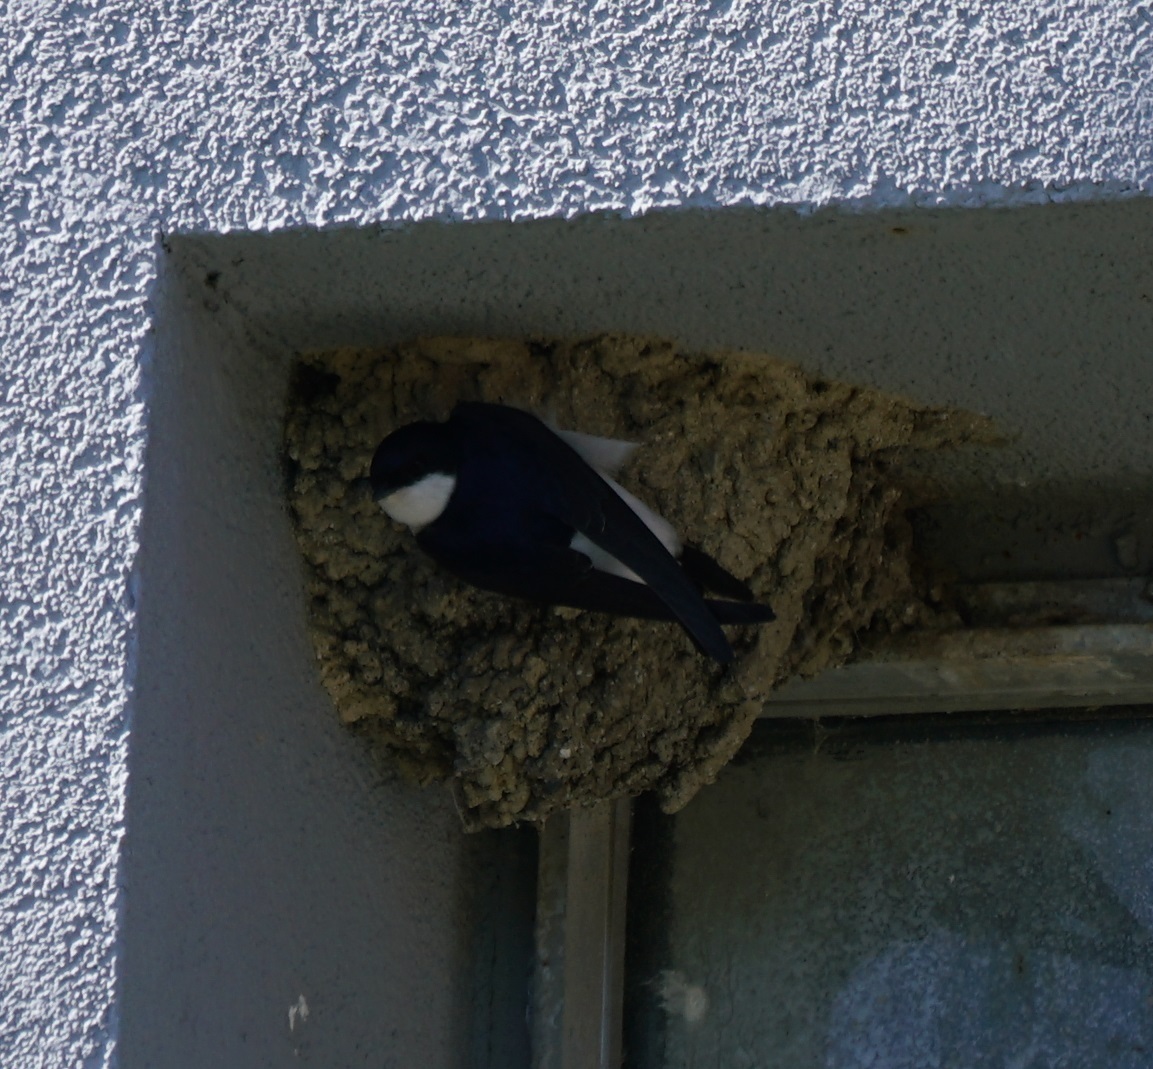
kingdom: Animalia
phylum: Chordata
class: Aves
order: Passeriformes
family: Hirundinidae
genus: Delichon
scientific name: Delichon urbicum
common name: Common house martin
